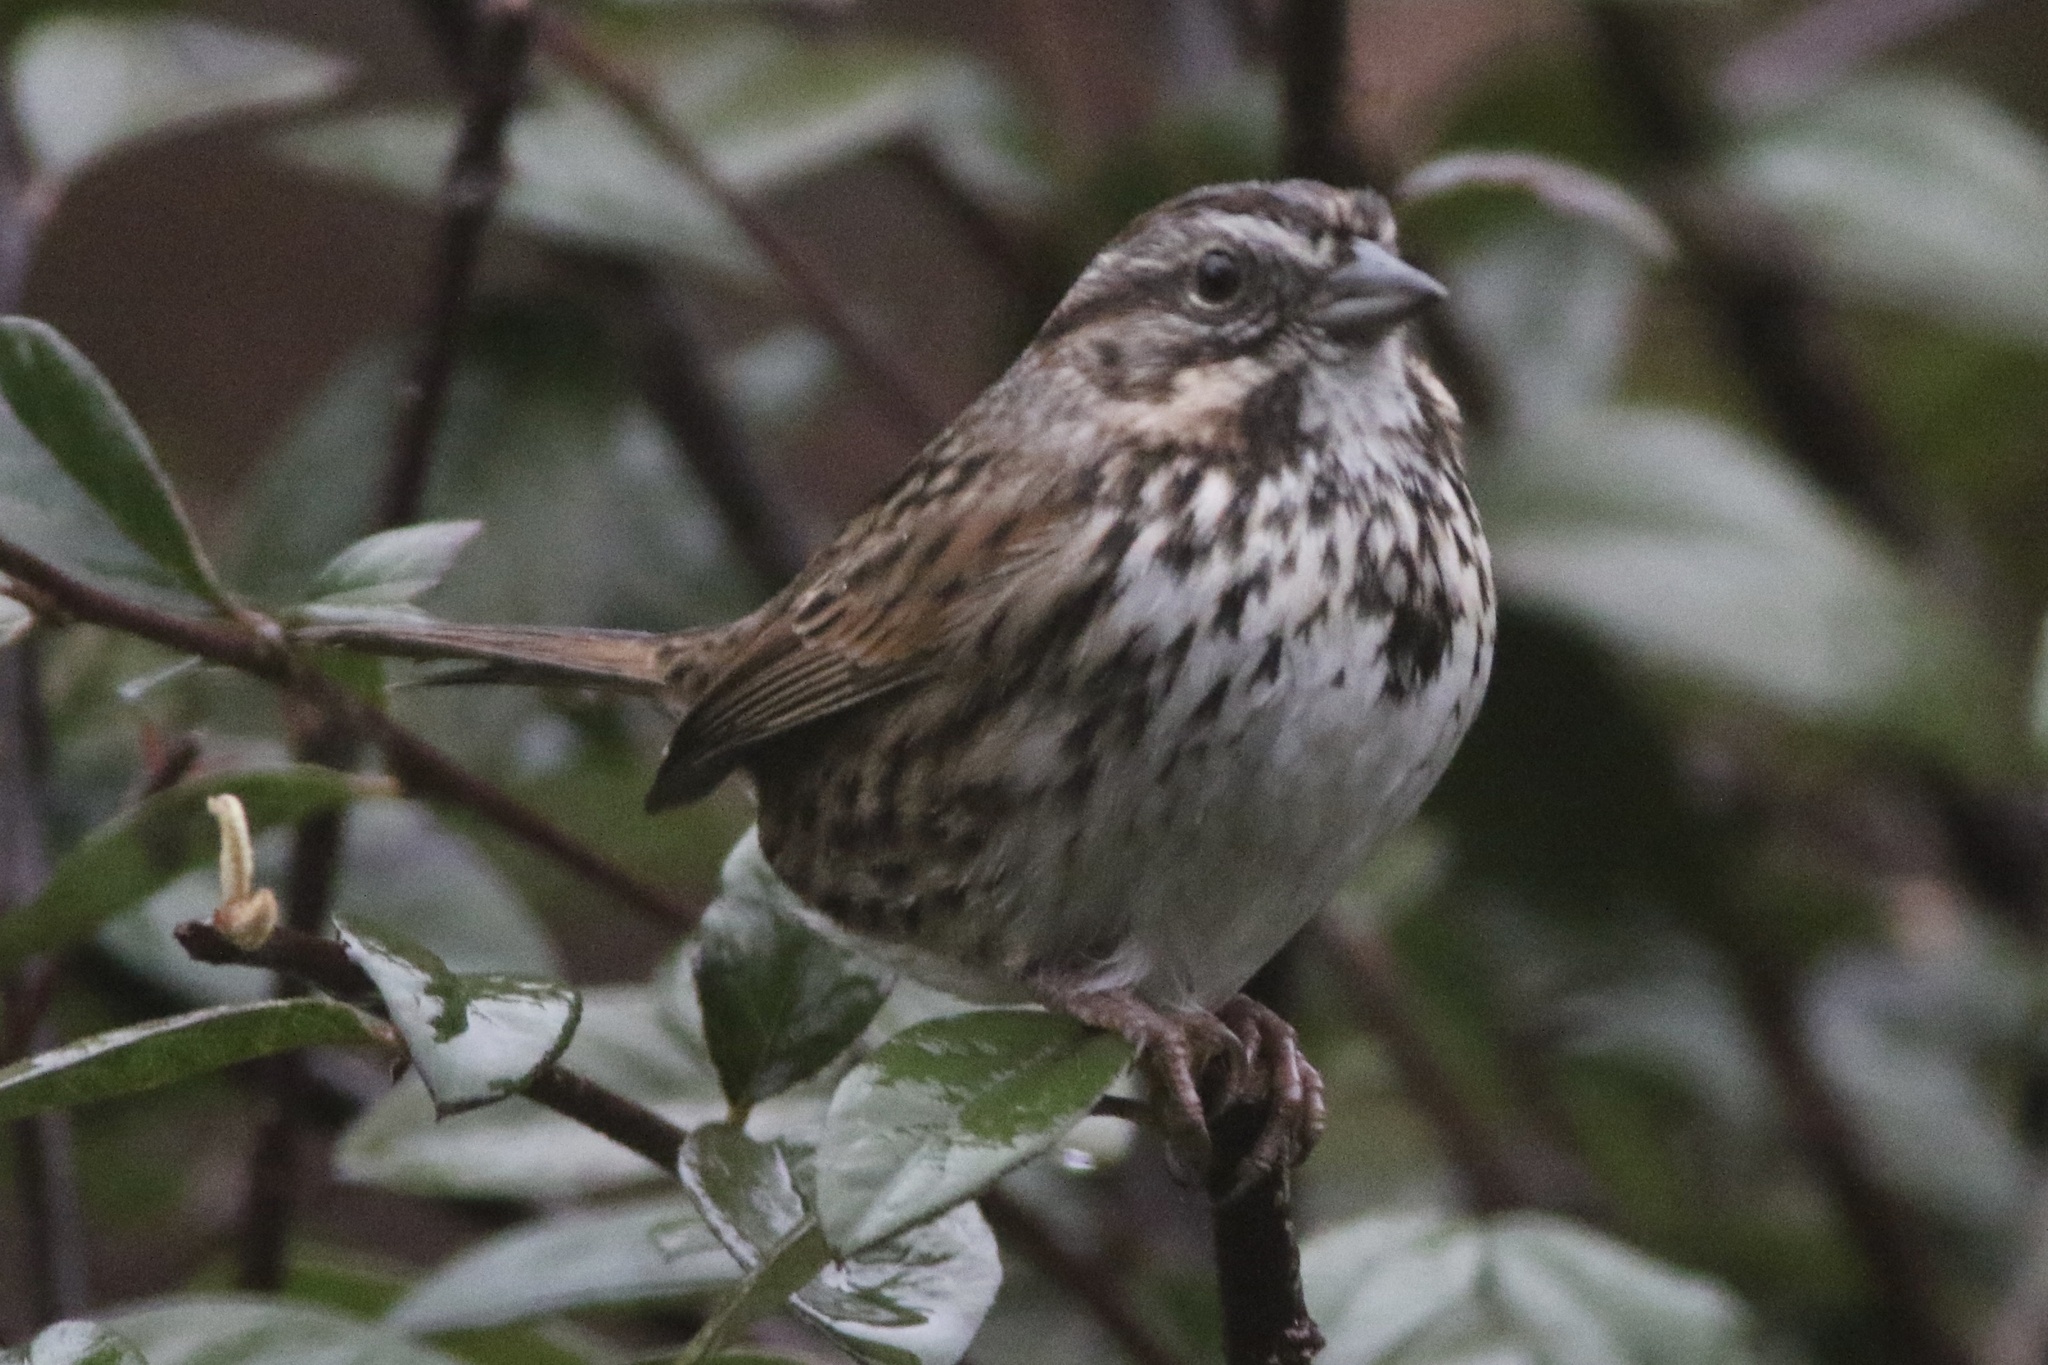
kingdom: Animalia
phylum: Chordata
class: Aves
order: Passeriformes
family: Passerellidae
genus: Melospiza
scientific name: Melospiza melodia
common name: Song sparrow
